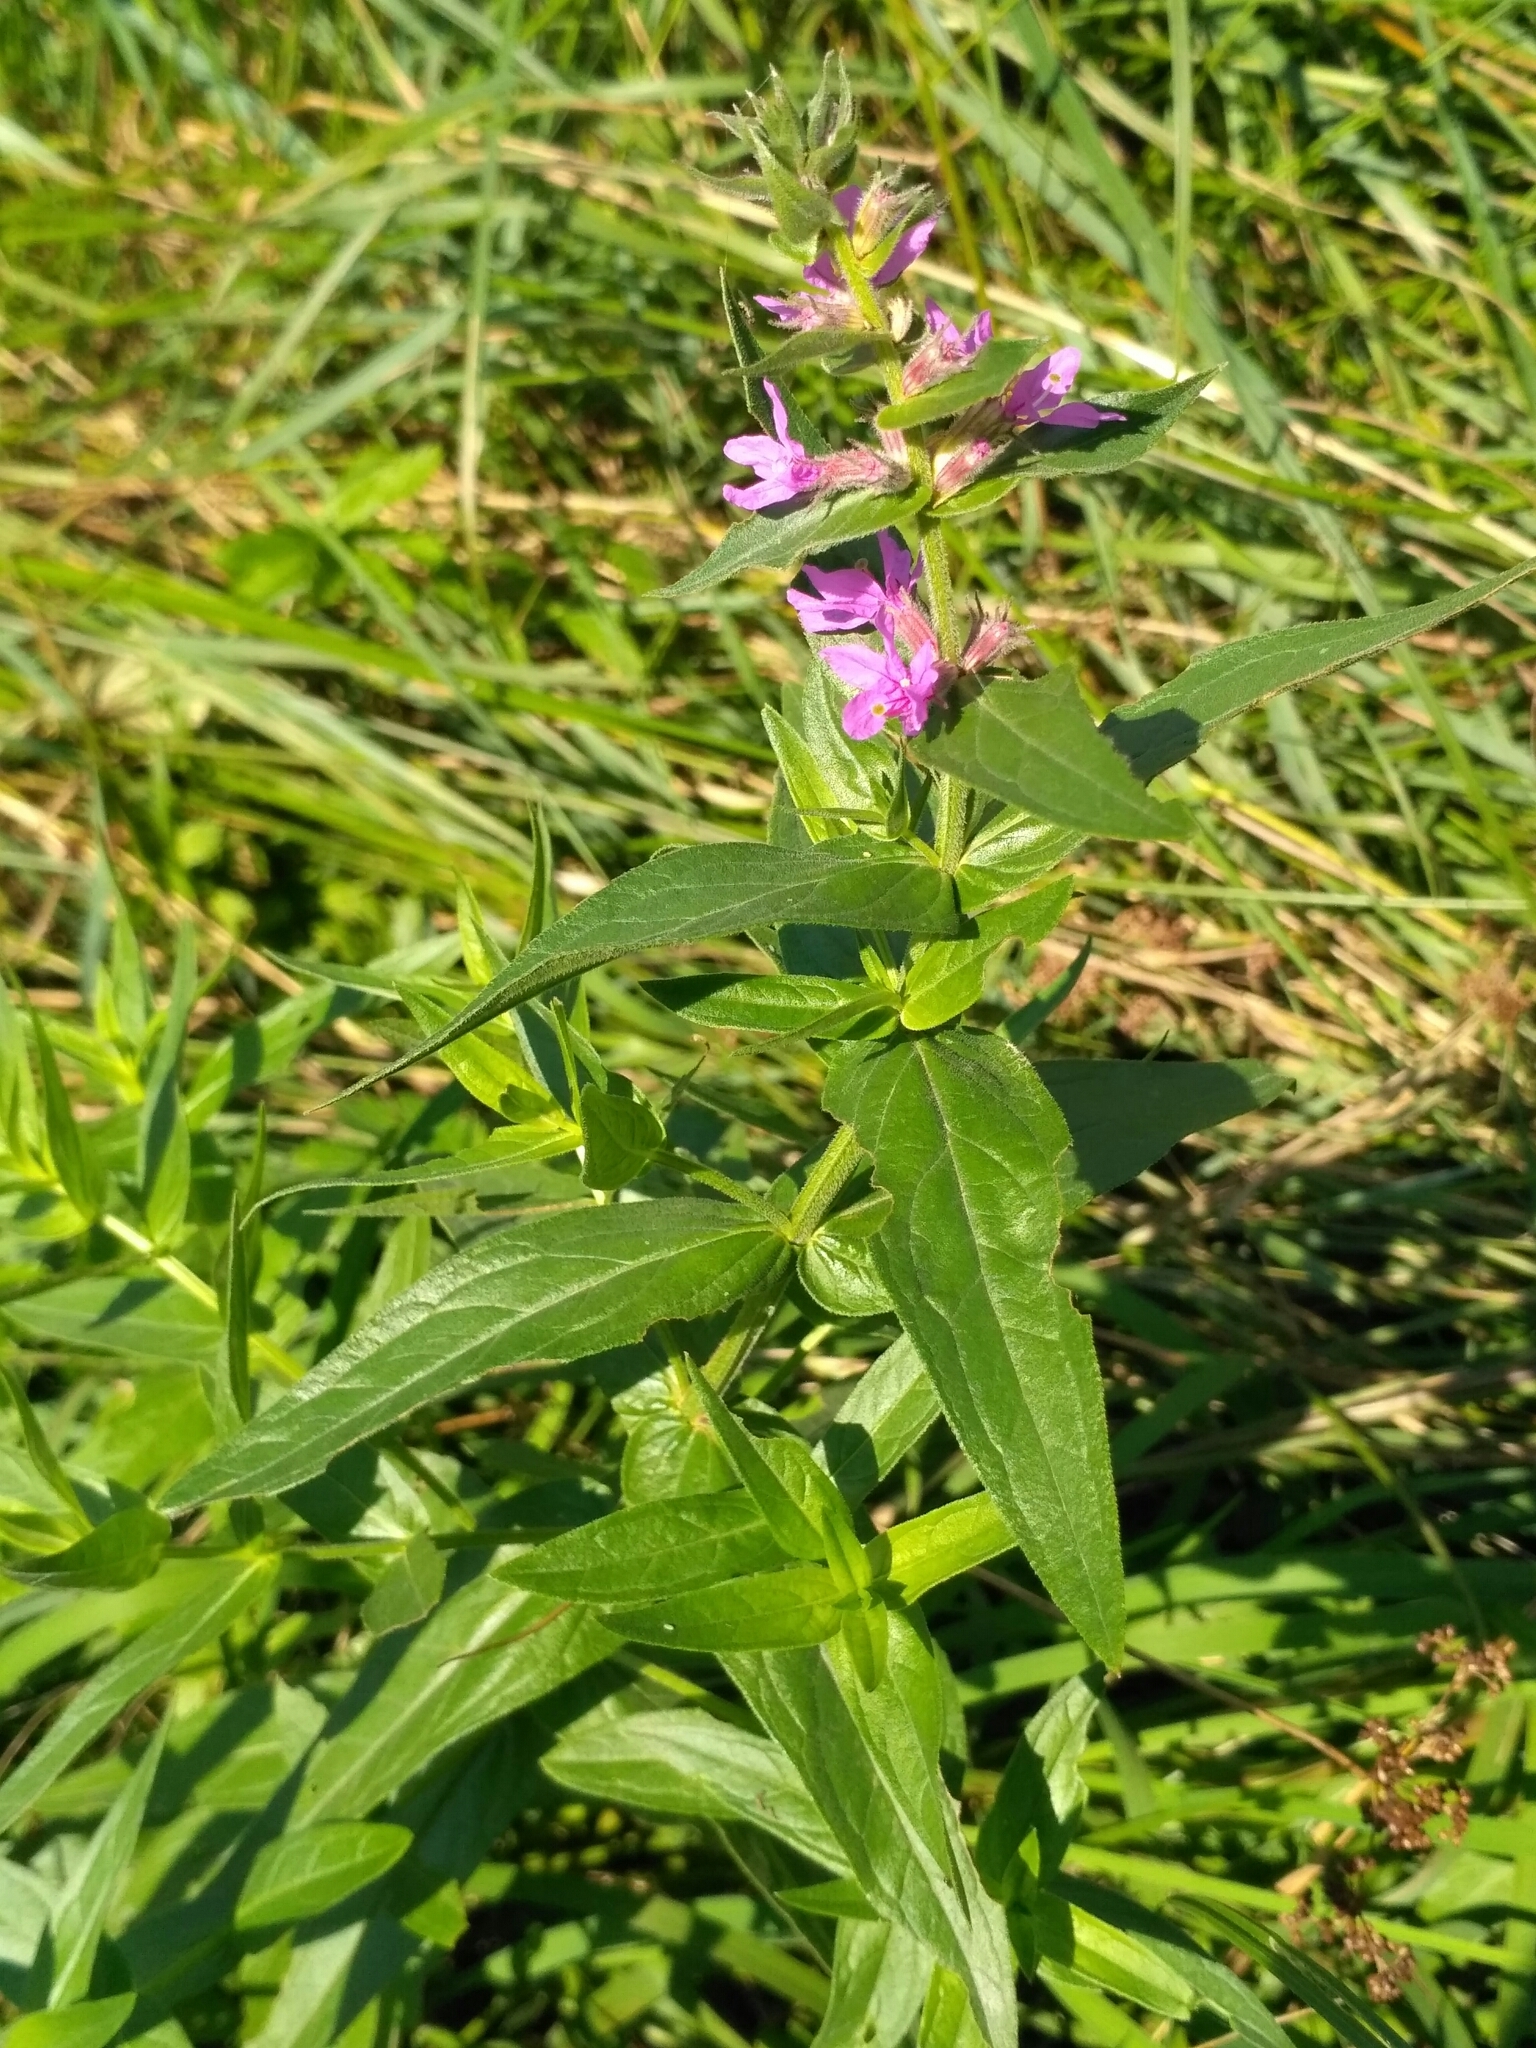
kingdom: Plantae
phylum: Tracheophyta
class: Magnoliopsida
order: Myrtales
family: Lythraceae
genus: Lythrum
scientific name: Lythrum salicaria
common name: Purple loosestrife
